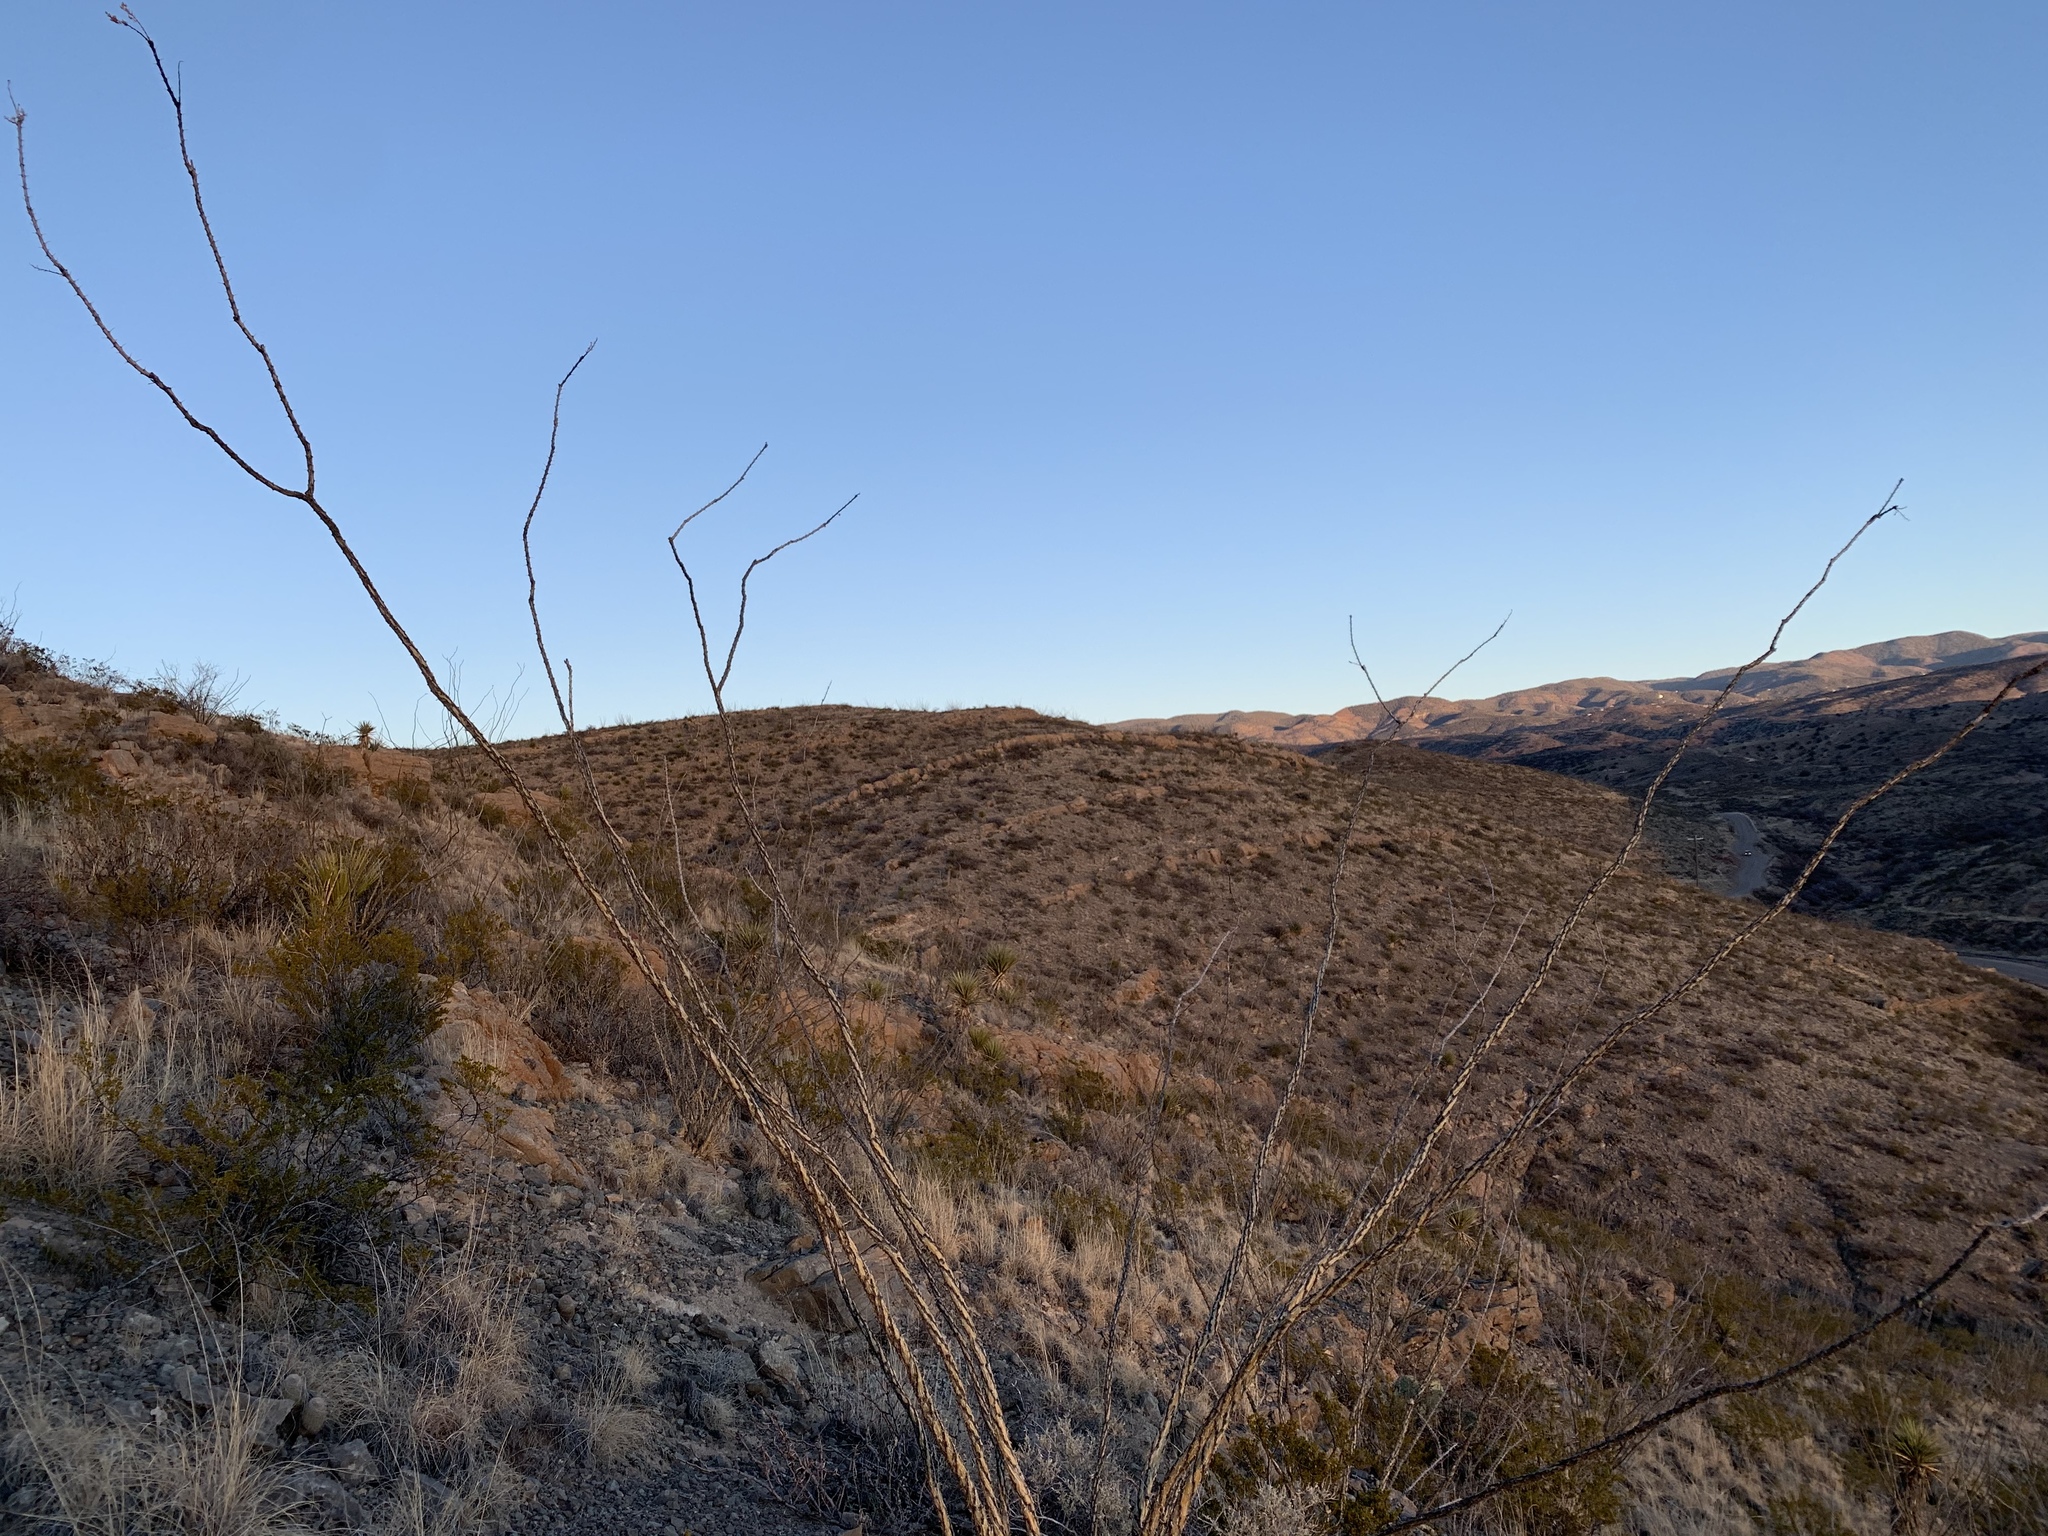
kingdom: Plantae
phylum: Tracheophyta
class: Magnoliopsida
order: Ericales
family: Fouquieriaceae
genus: Fouquieria
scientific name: Fouquieria splendens
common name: Vine-cactus
